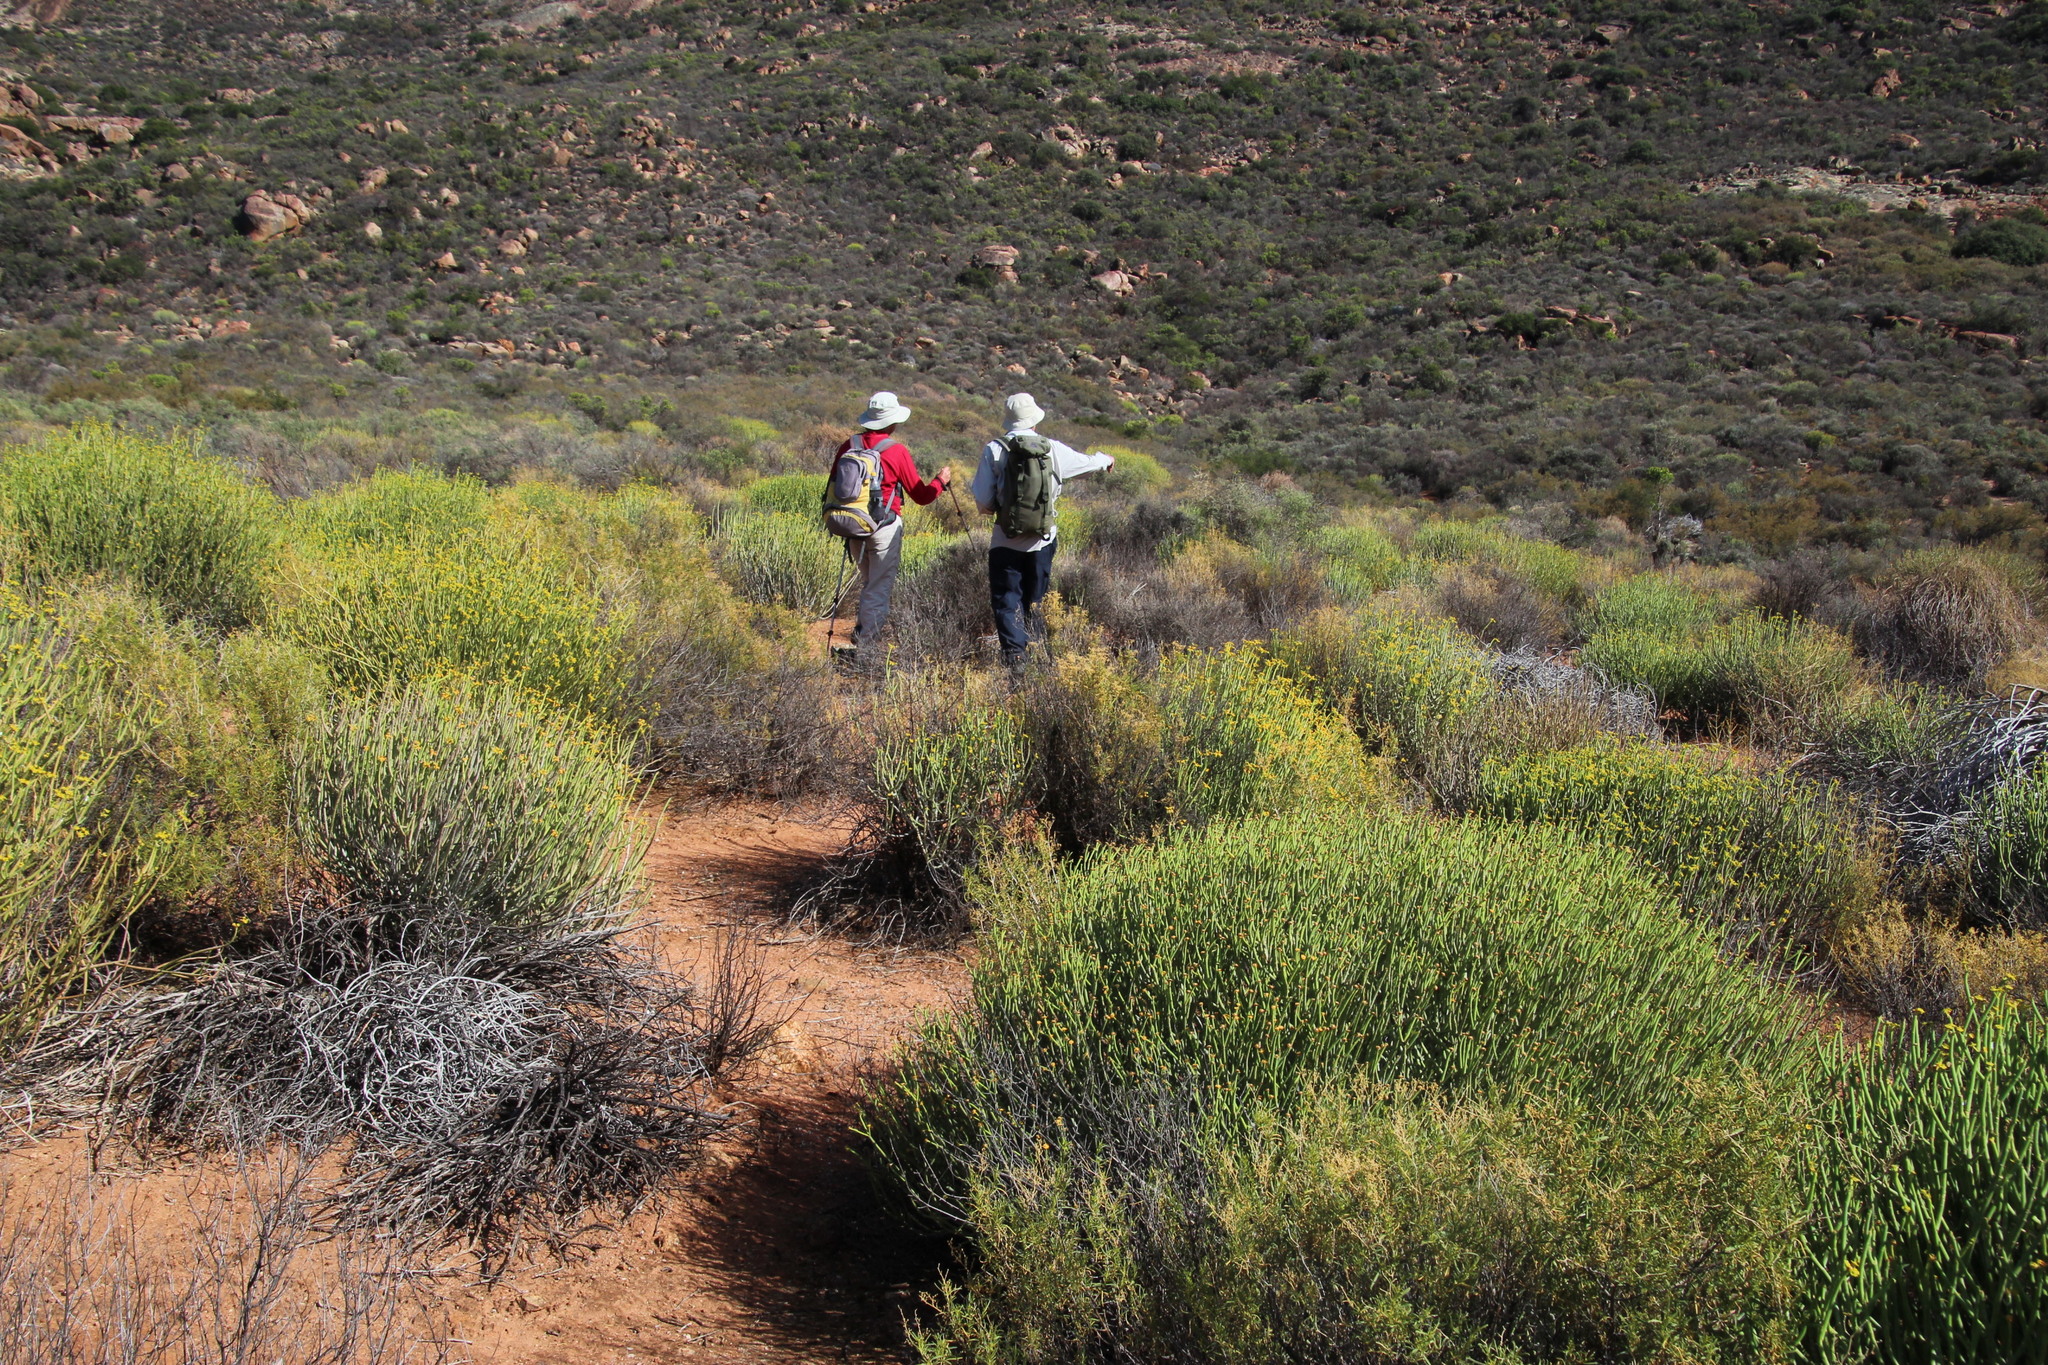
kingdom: Plantae
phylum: Tracheophyta
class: Magnoliopsida
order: Malpighiales
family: Euphorbiaceae
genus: Euphorbia
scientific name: Euphorbia mauritanica
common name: Jackal's-food
